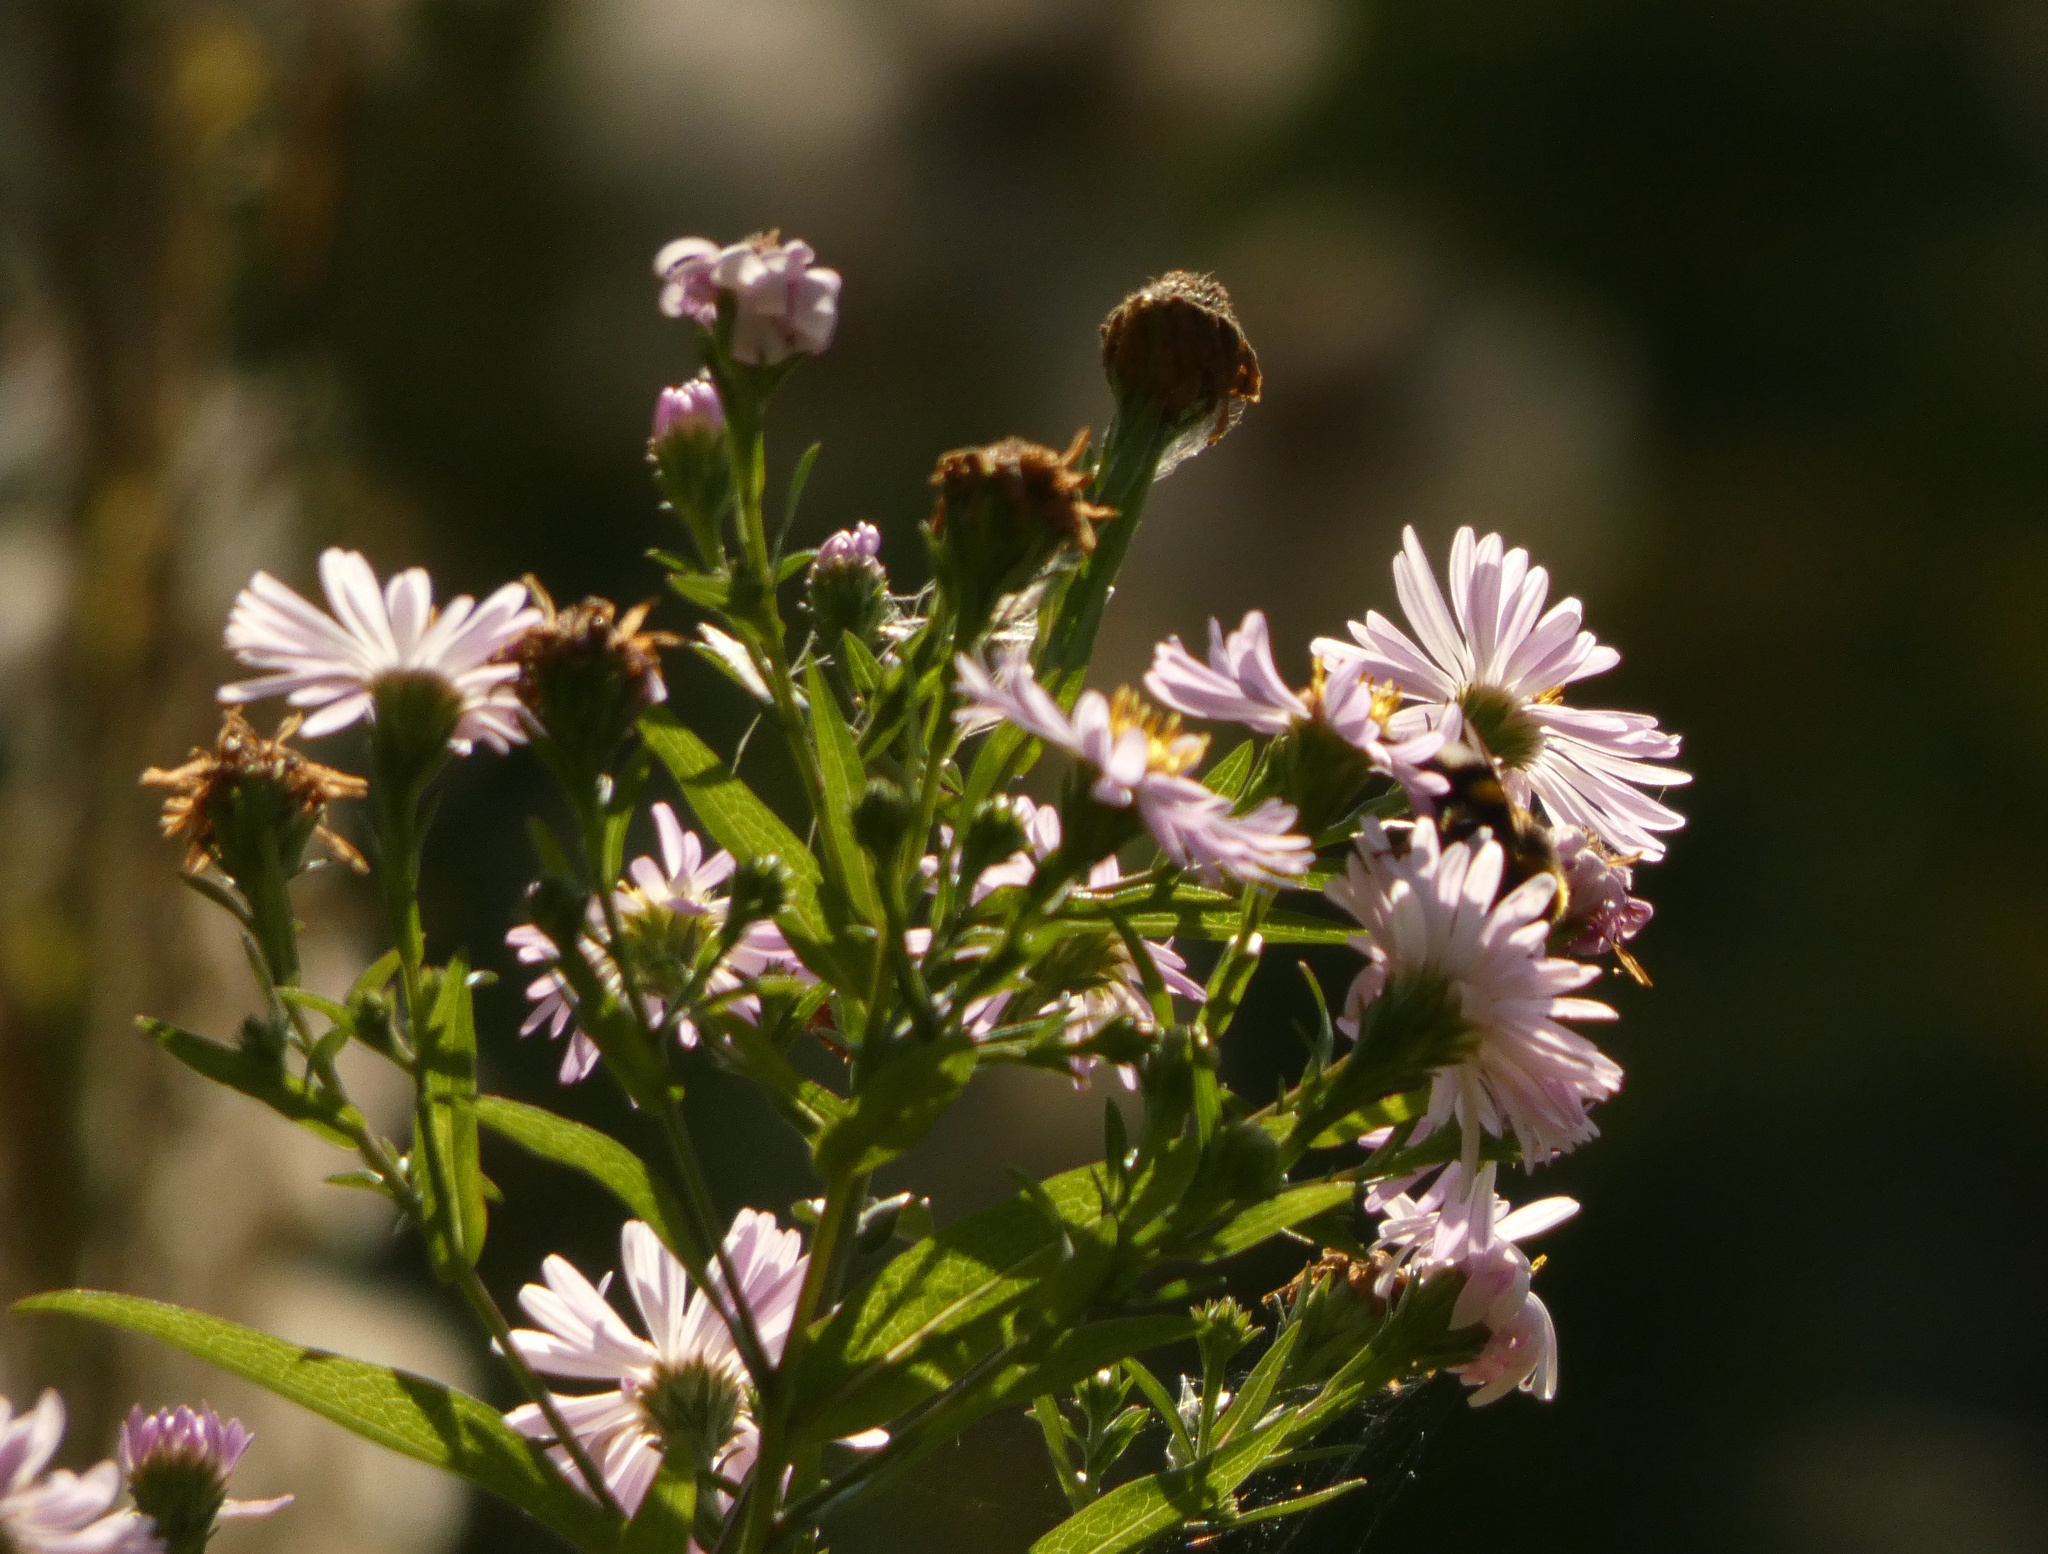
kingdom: Plantae
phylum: Tracheophyta
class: Magnoliopsida
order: Asterales
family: Asteraceae
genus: Symphyotrichum
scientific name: Symphyotrichum novi-belgii
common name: Michaelmas daisy
